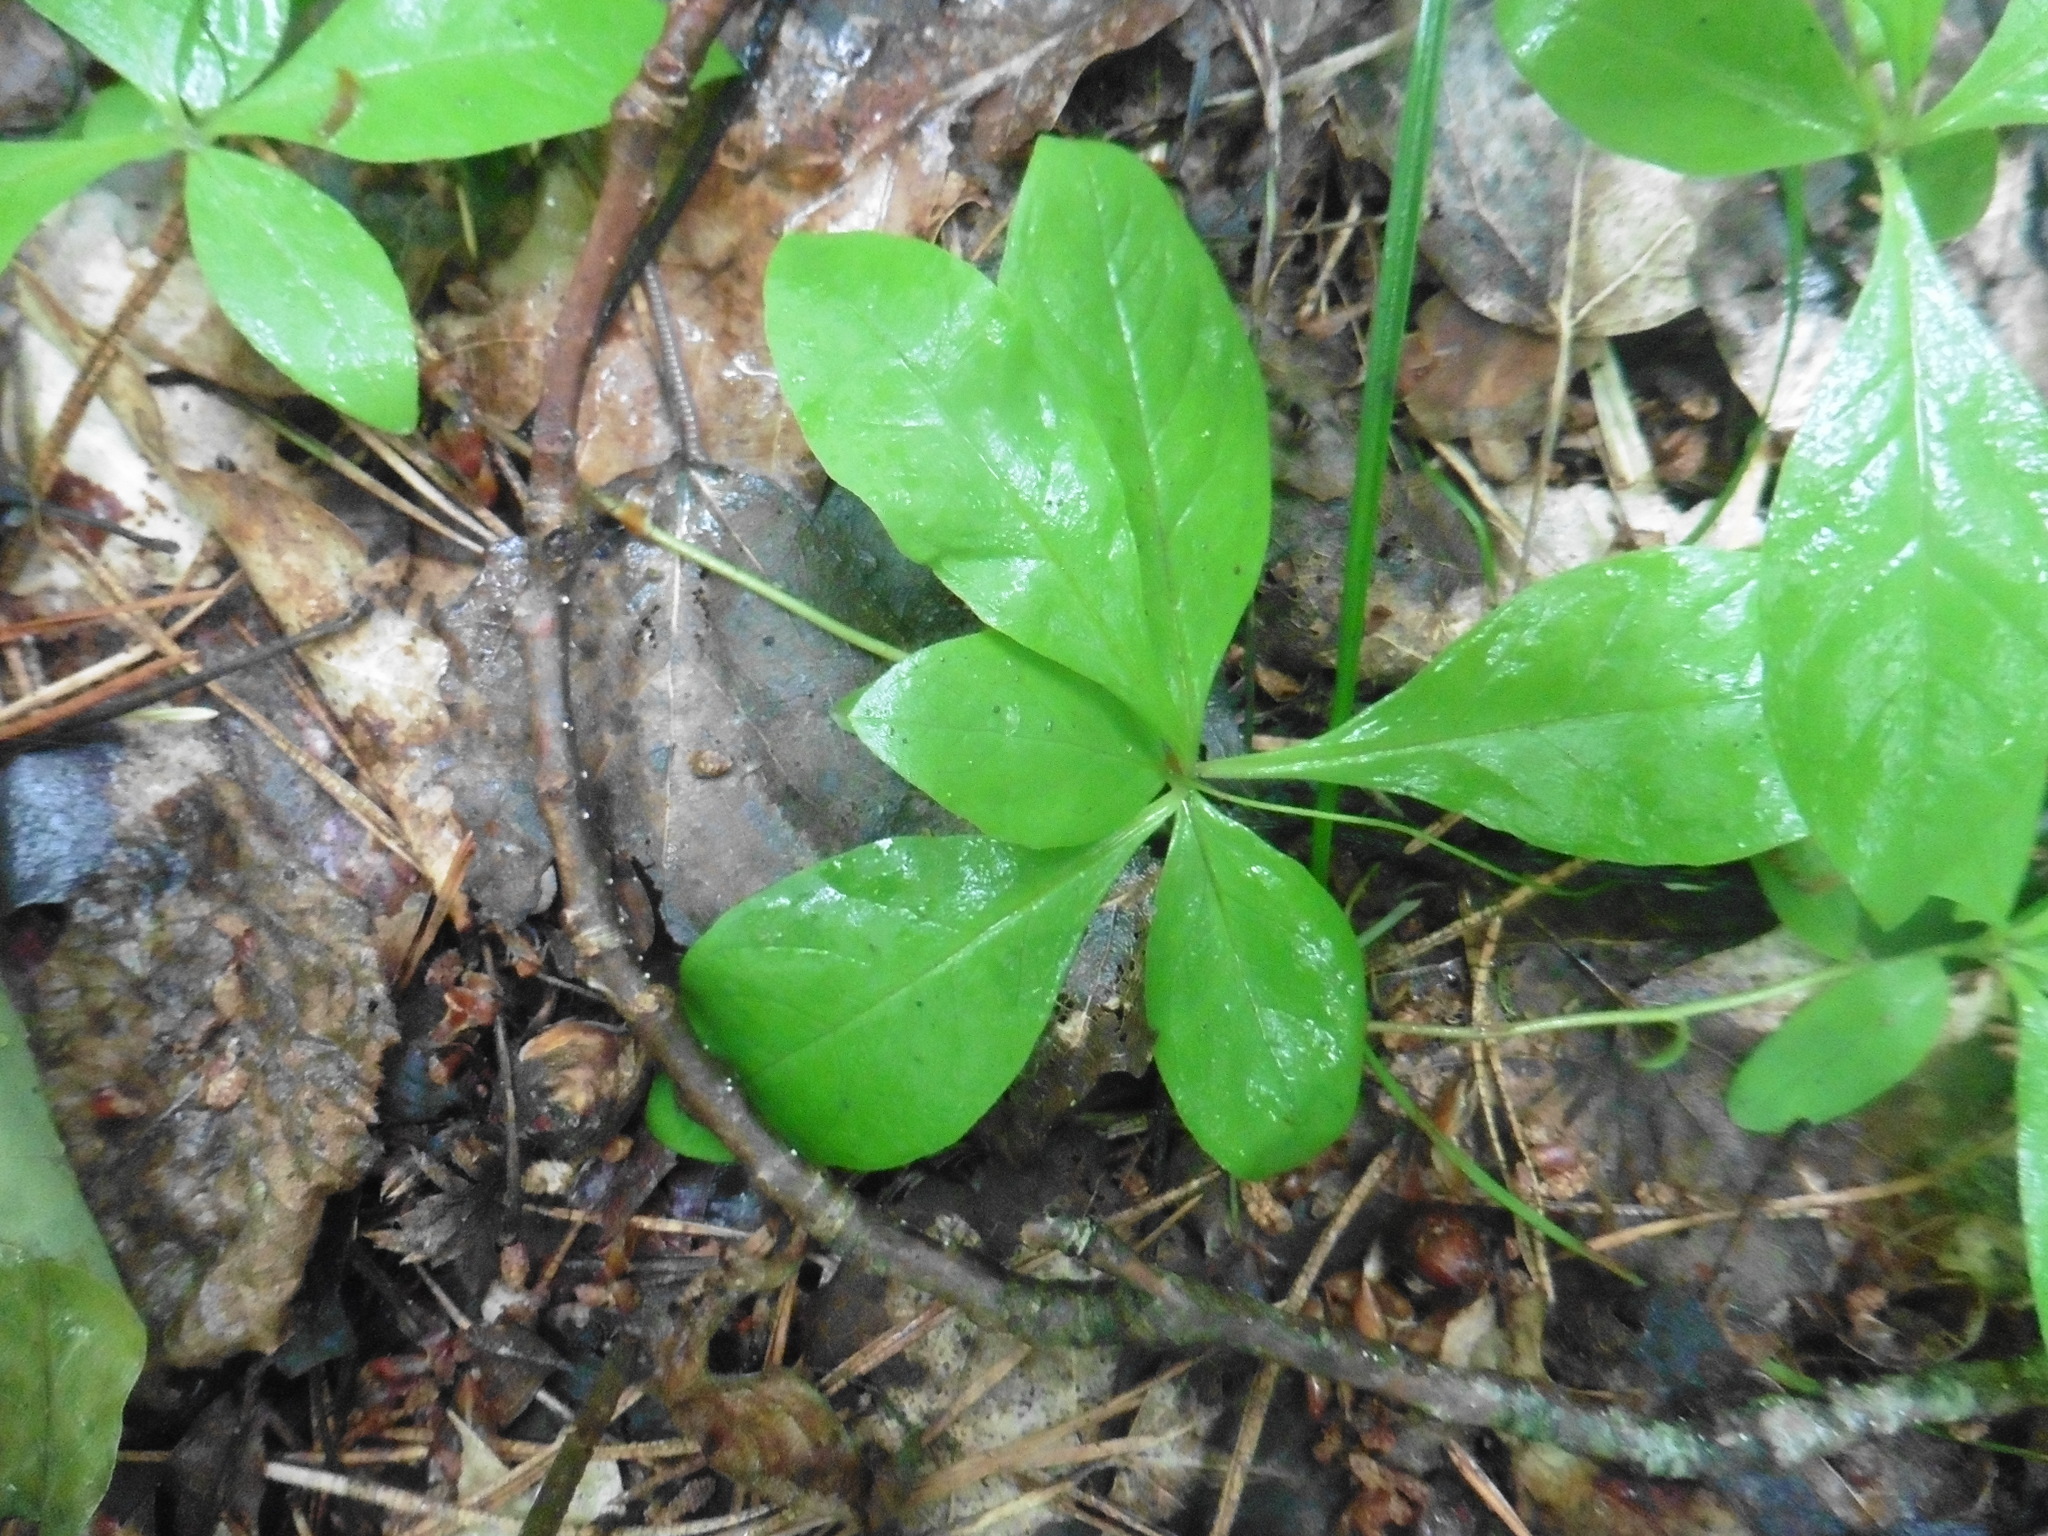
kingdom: Plantae
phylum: Tracheophyta
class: Magnoliopsida
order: Ericales
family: Primulaceae
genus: Lysimachia
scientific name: Lysimachia europaea
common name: Arctic starflower
